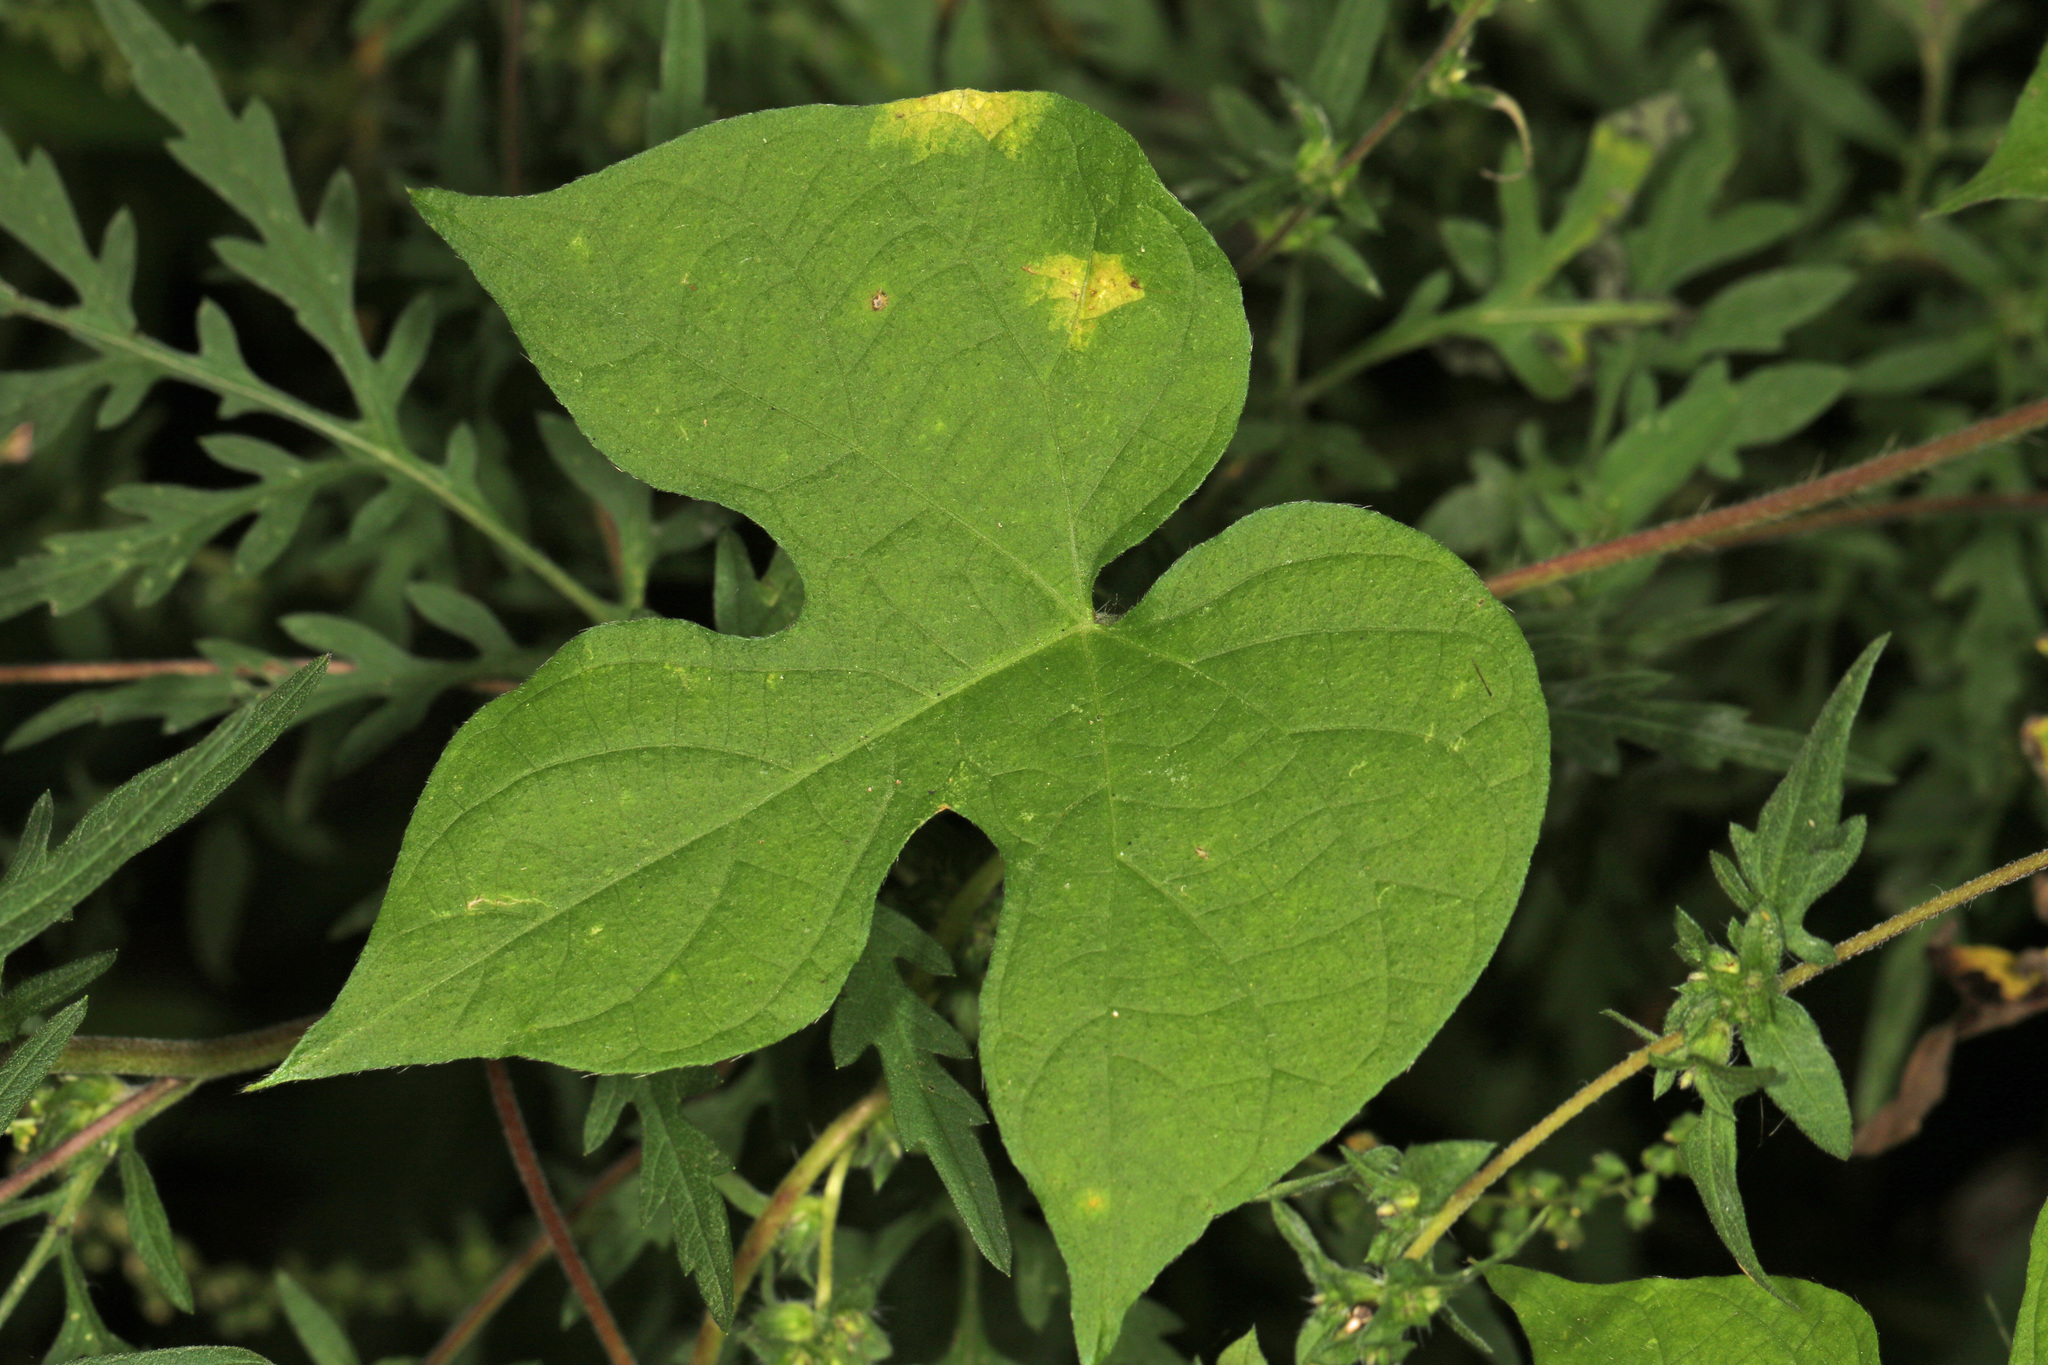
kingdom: Plantae
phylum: Tracheophyta
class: Magnoliopsida
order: Solanales
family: Convolvulaceae
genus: Ipomoea
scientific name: Ipomoea hederacea
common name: Ivy-leaved morning-glory
